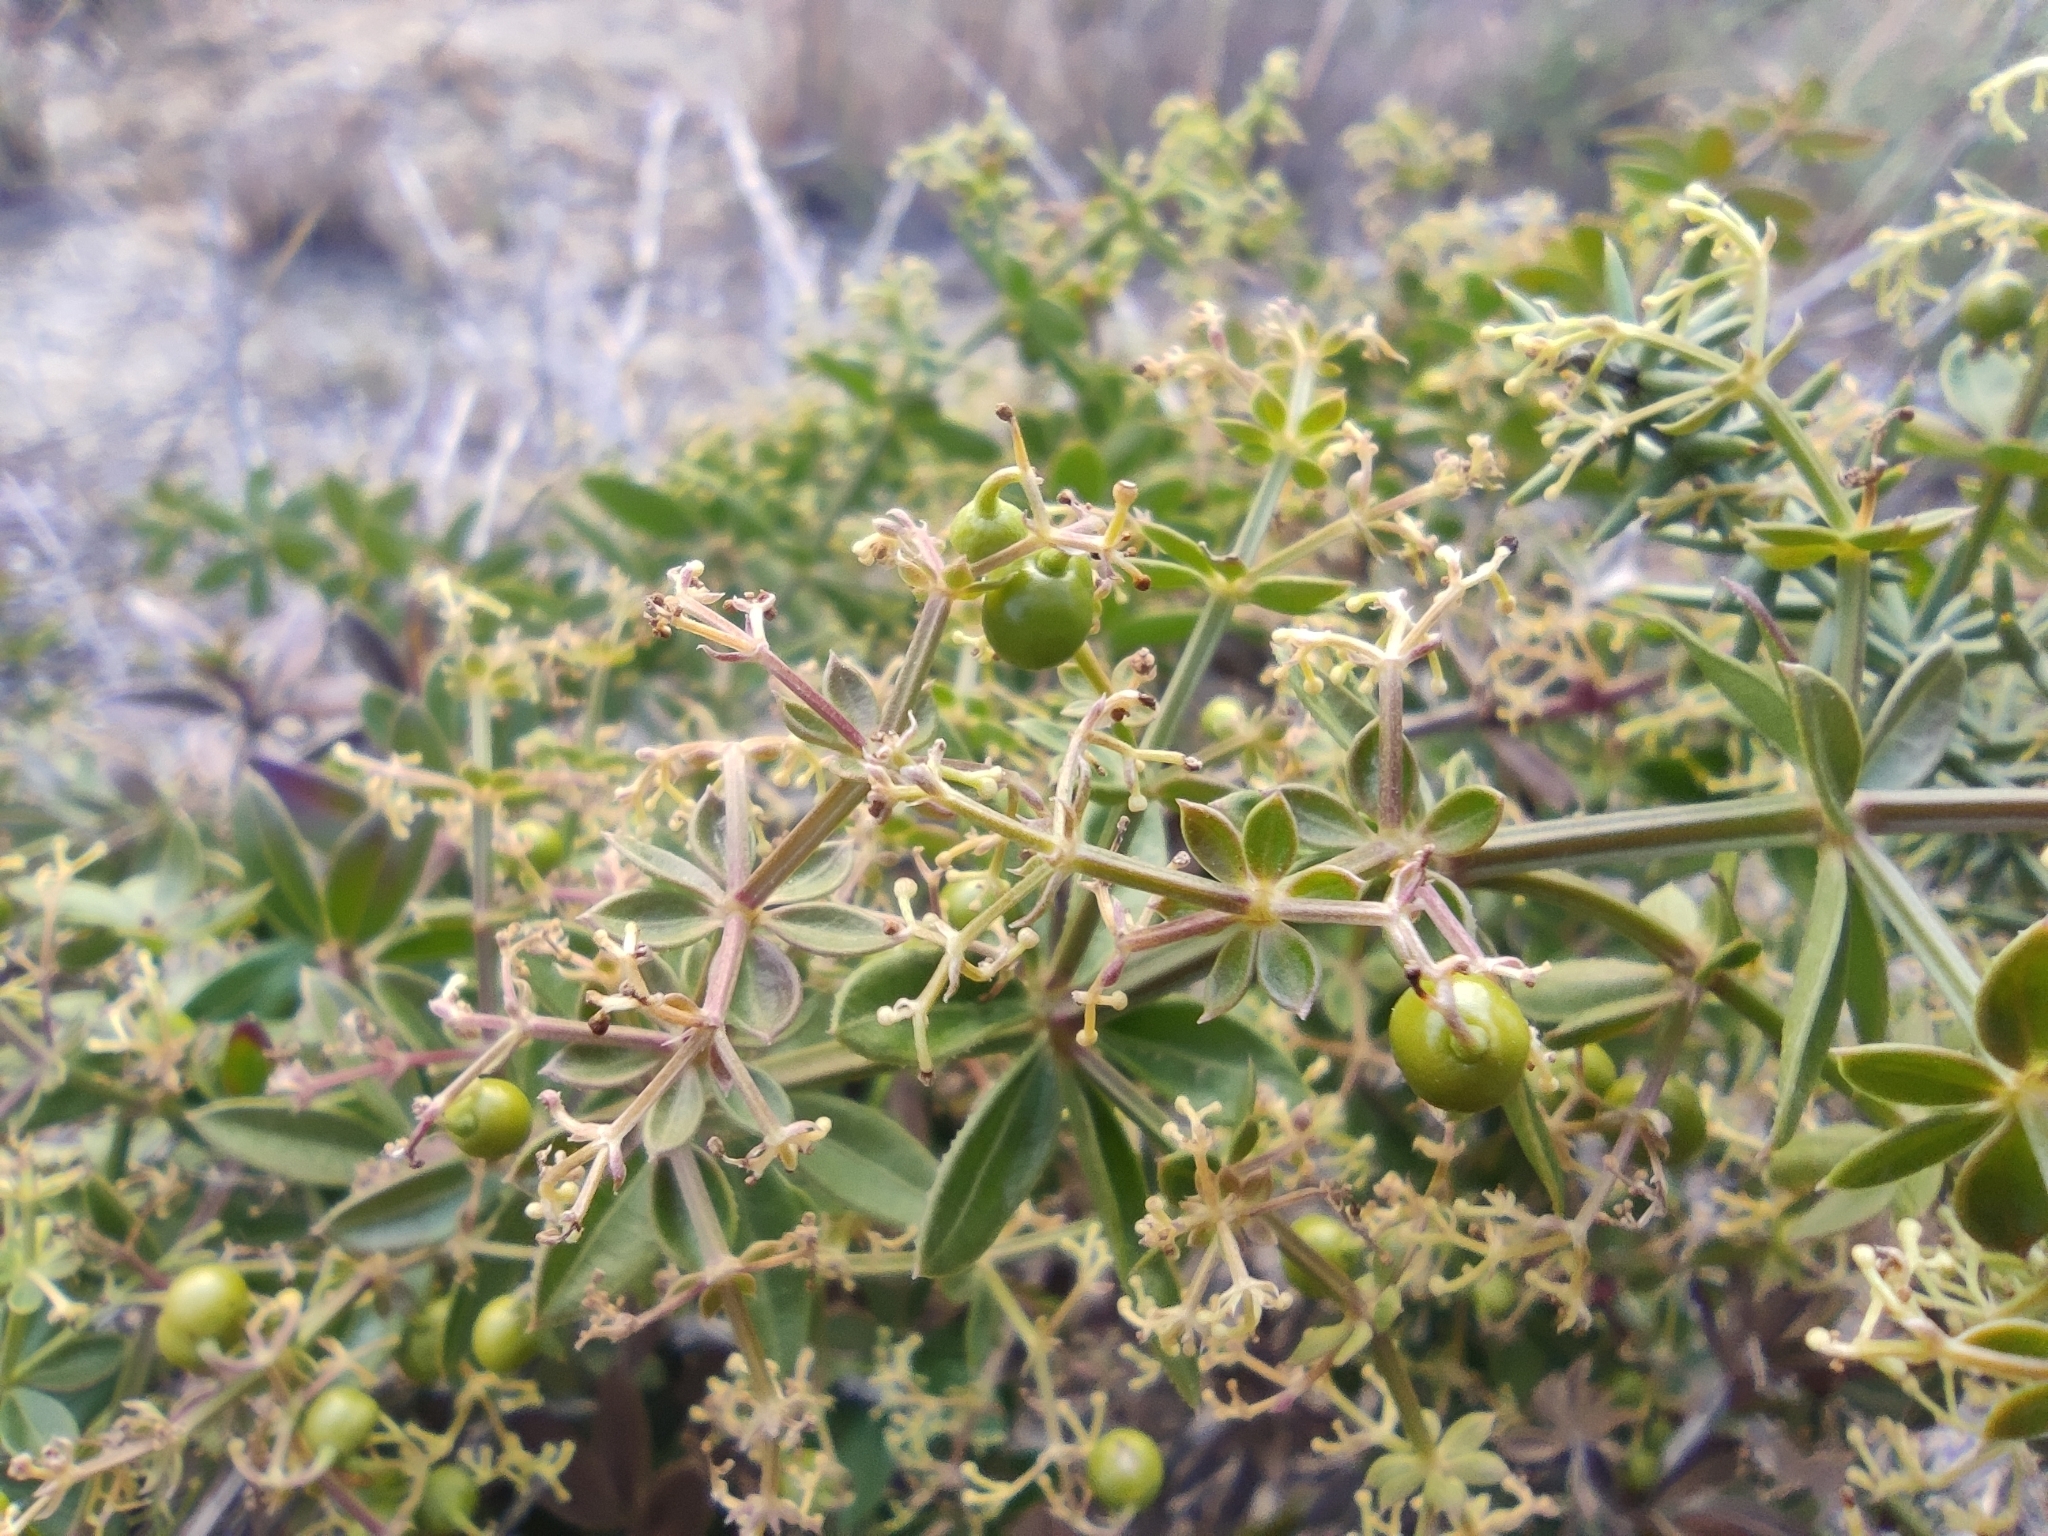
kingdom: Plantae
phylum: Tracheophyta
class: Magnoliopsida
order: Gentianales
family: Rubiaceae
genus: Rubia
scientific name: Rubia peregrina
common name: Wild madder
